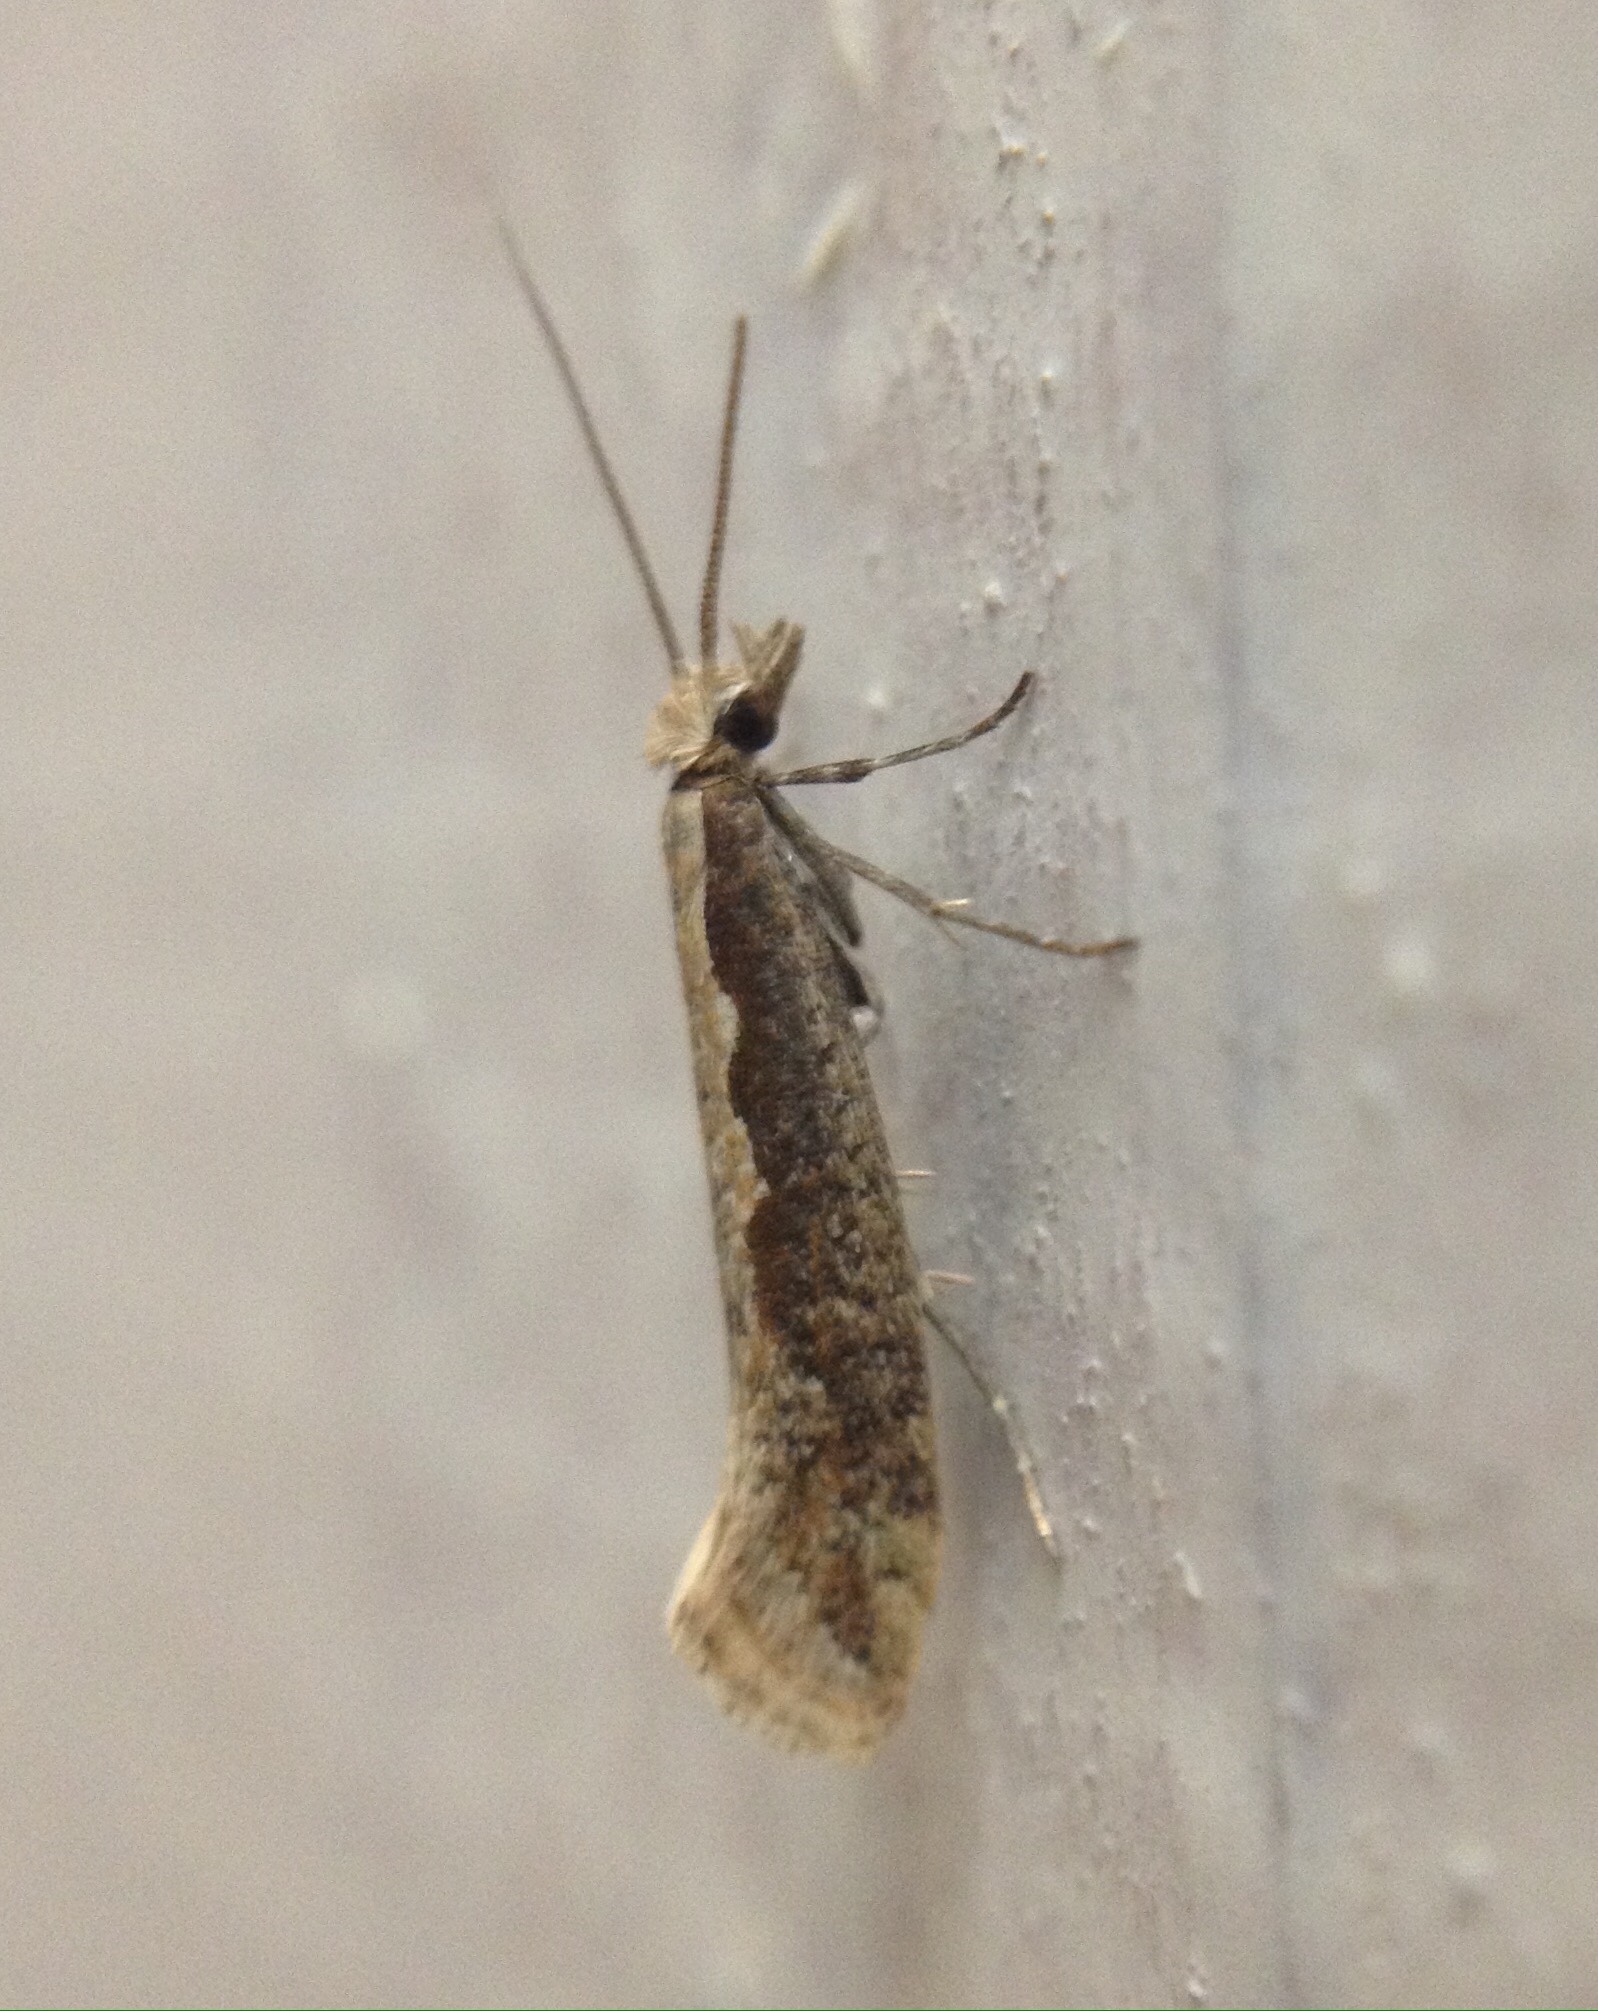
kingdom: Animalia
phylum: Arthropoda
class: Insecta
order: Lepidoptera
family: Plutellidae
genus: Plutella
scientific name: Plutella xylostella
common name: Diamond-back moth
